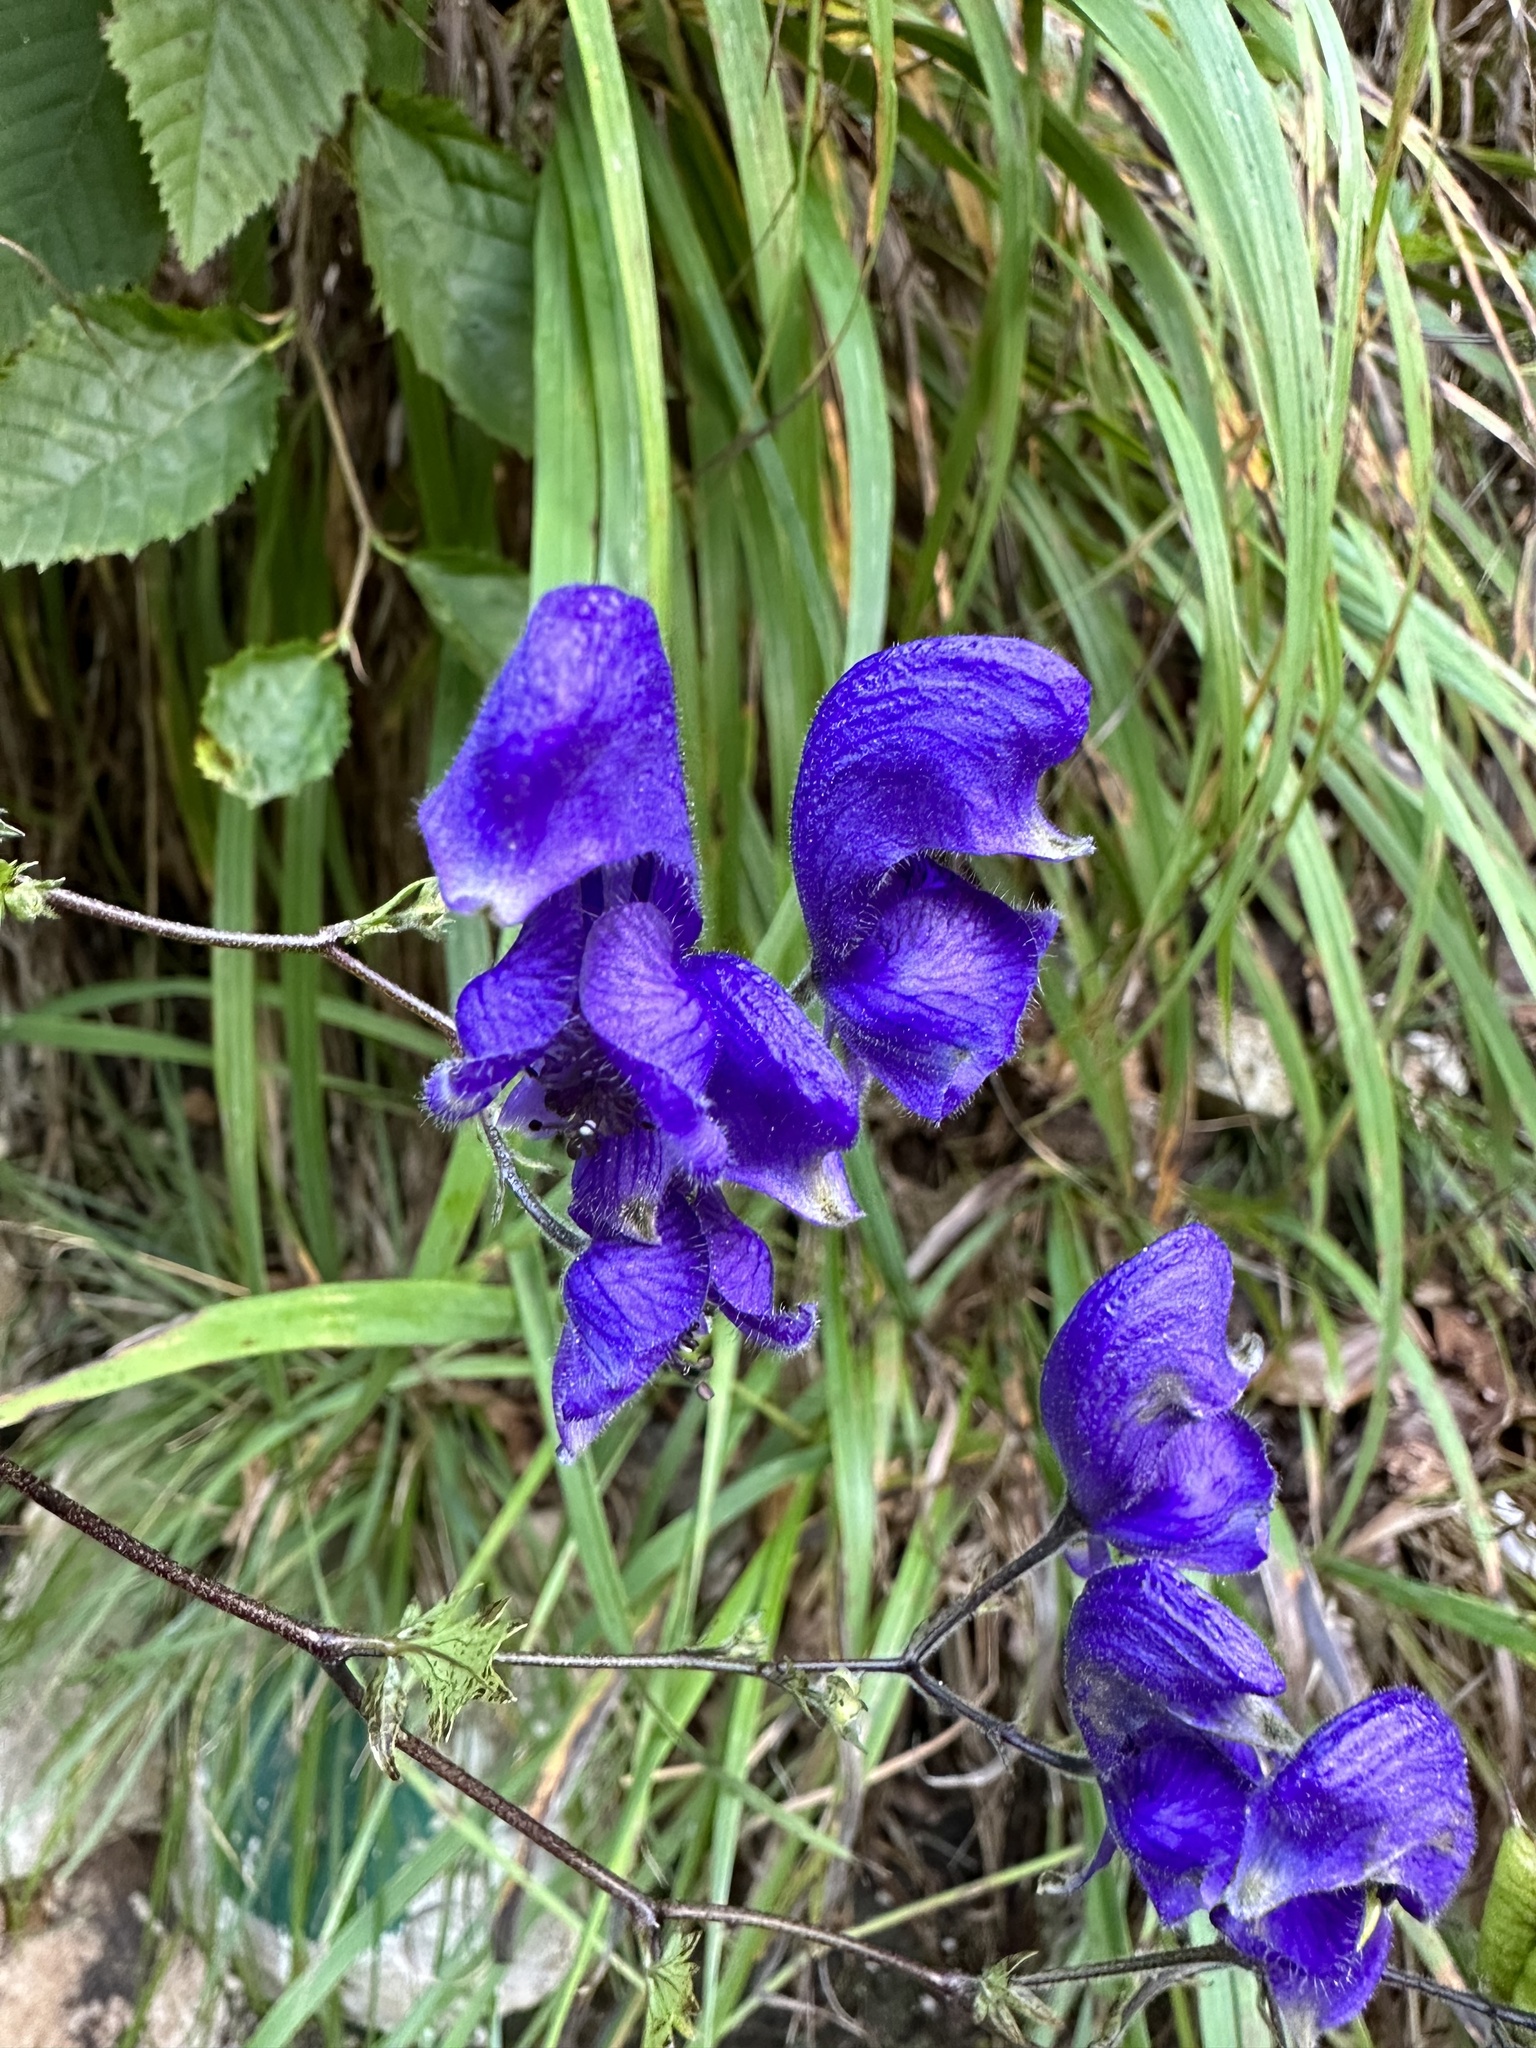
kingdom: Plantae
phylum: Tracheophyta
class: Magnoliopsida
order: Ranunculales
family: Ranunculaceae
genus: Aconitum
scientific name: Aconitum degenii
